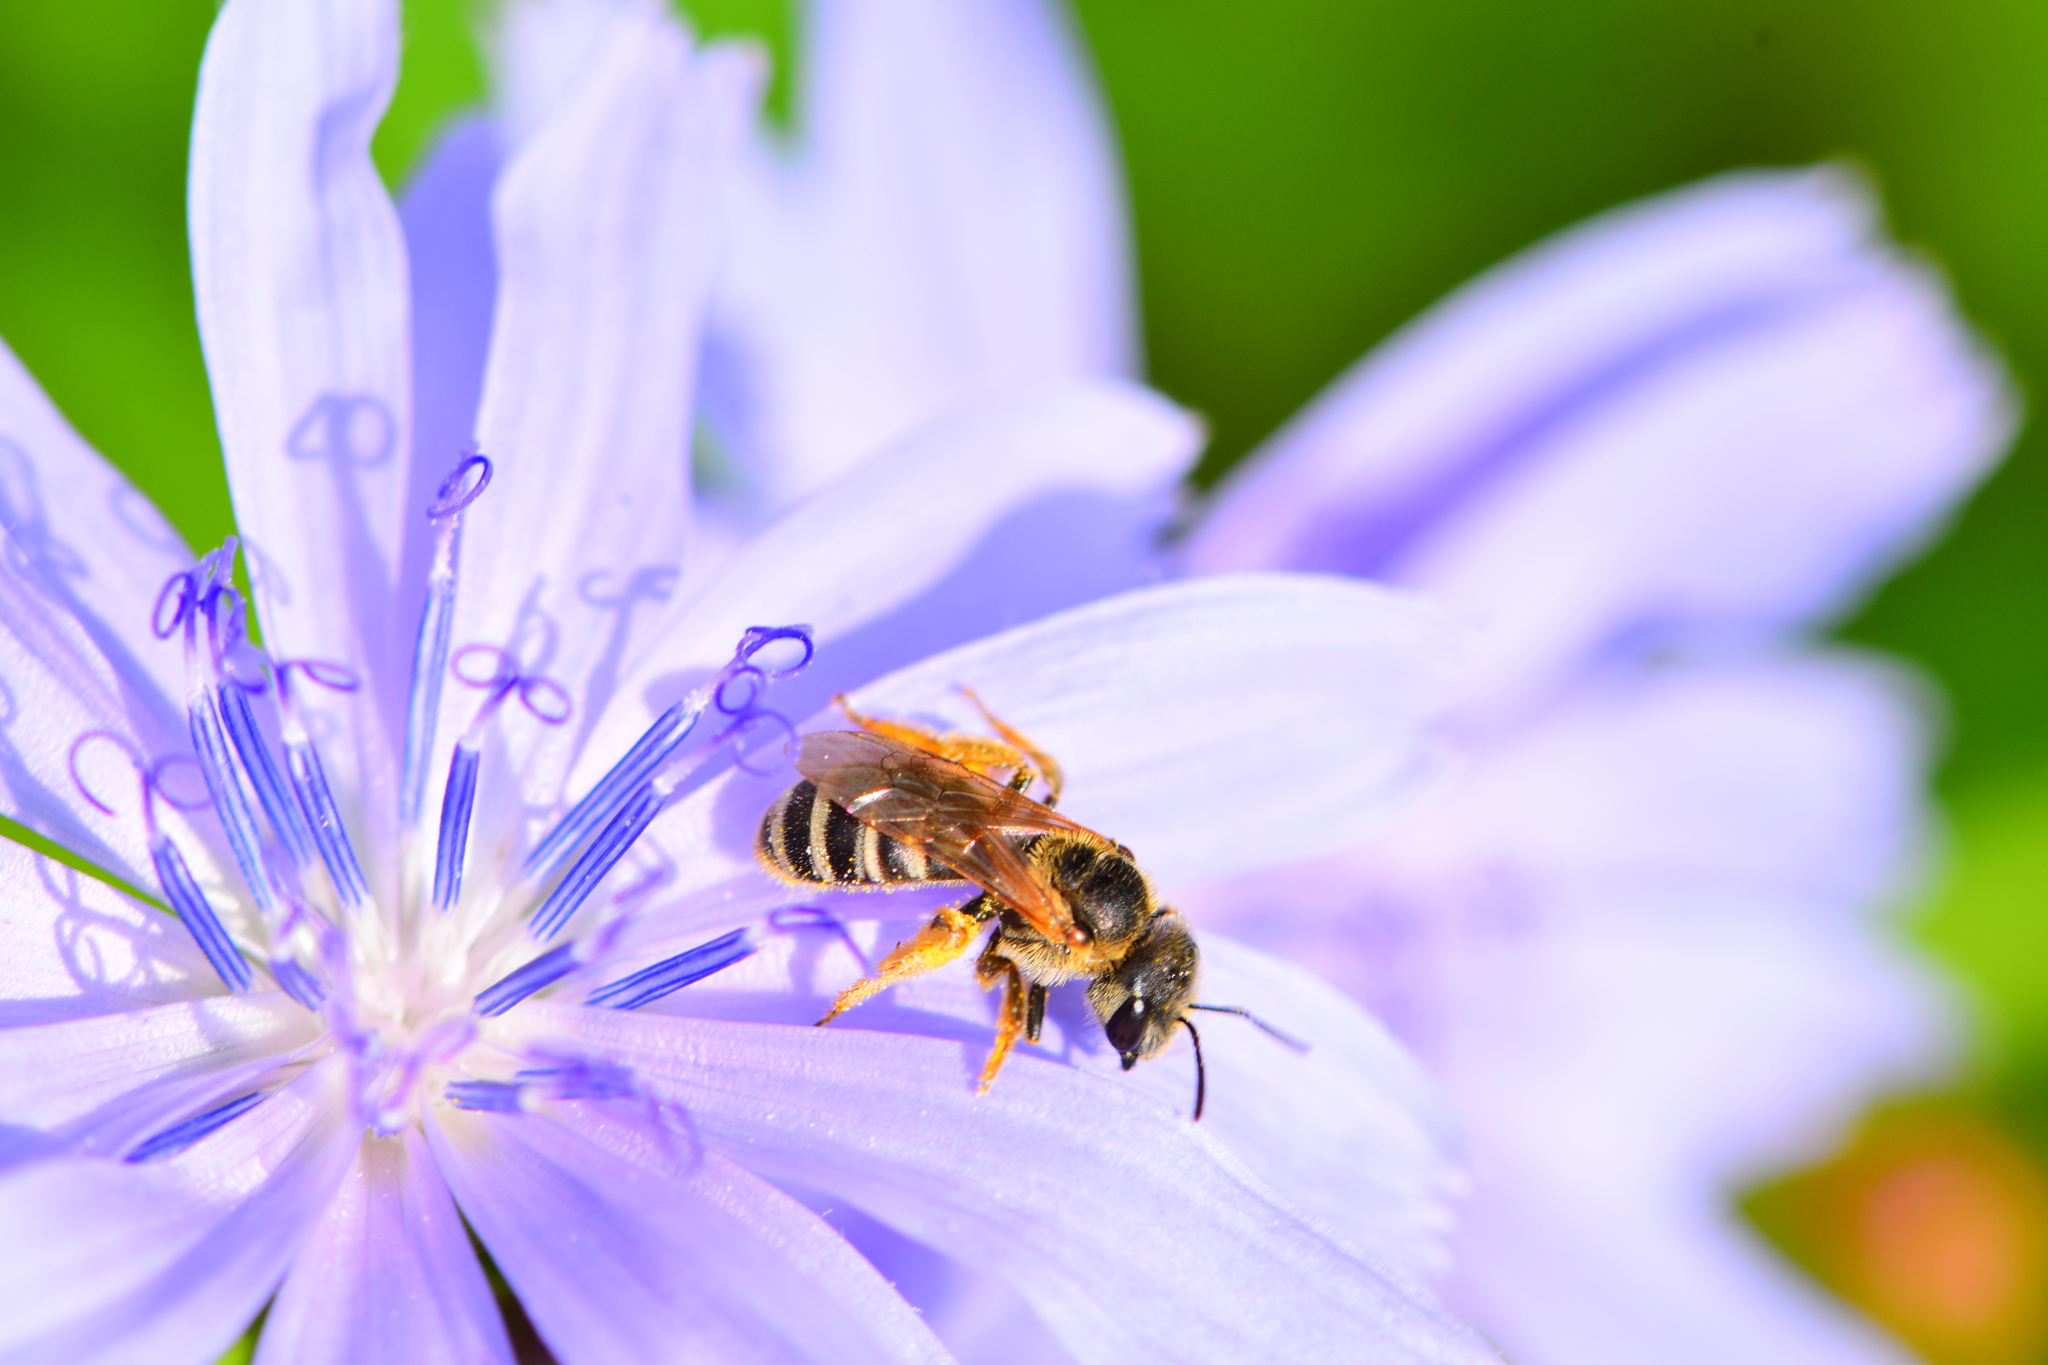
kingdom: Animalia
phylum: Arthropoda
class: Insecta
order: Hymenoptera
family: Halictidae
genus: Halictus
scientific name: Halictus ligatus
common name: Ligated furrow bee
